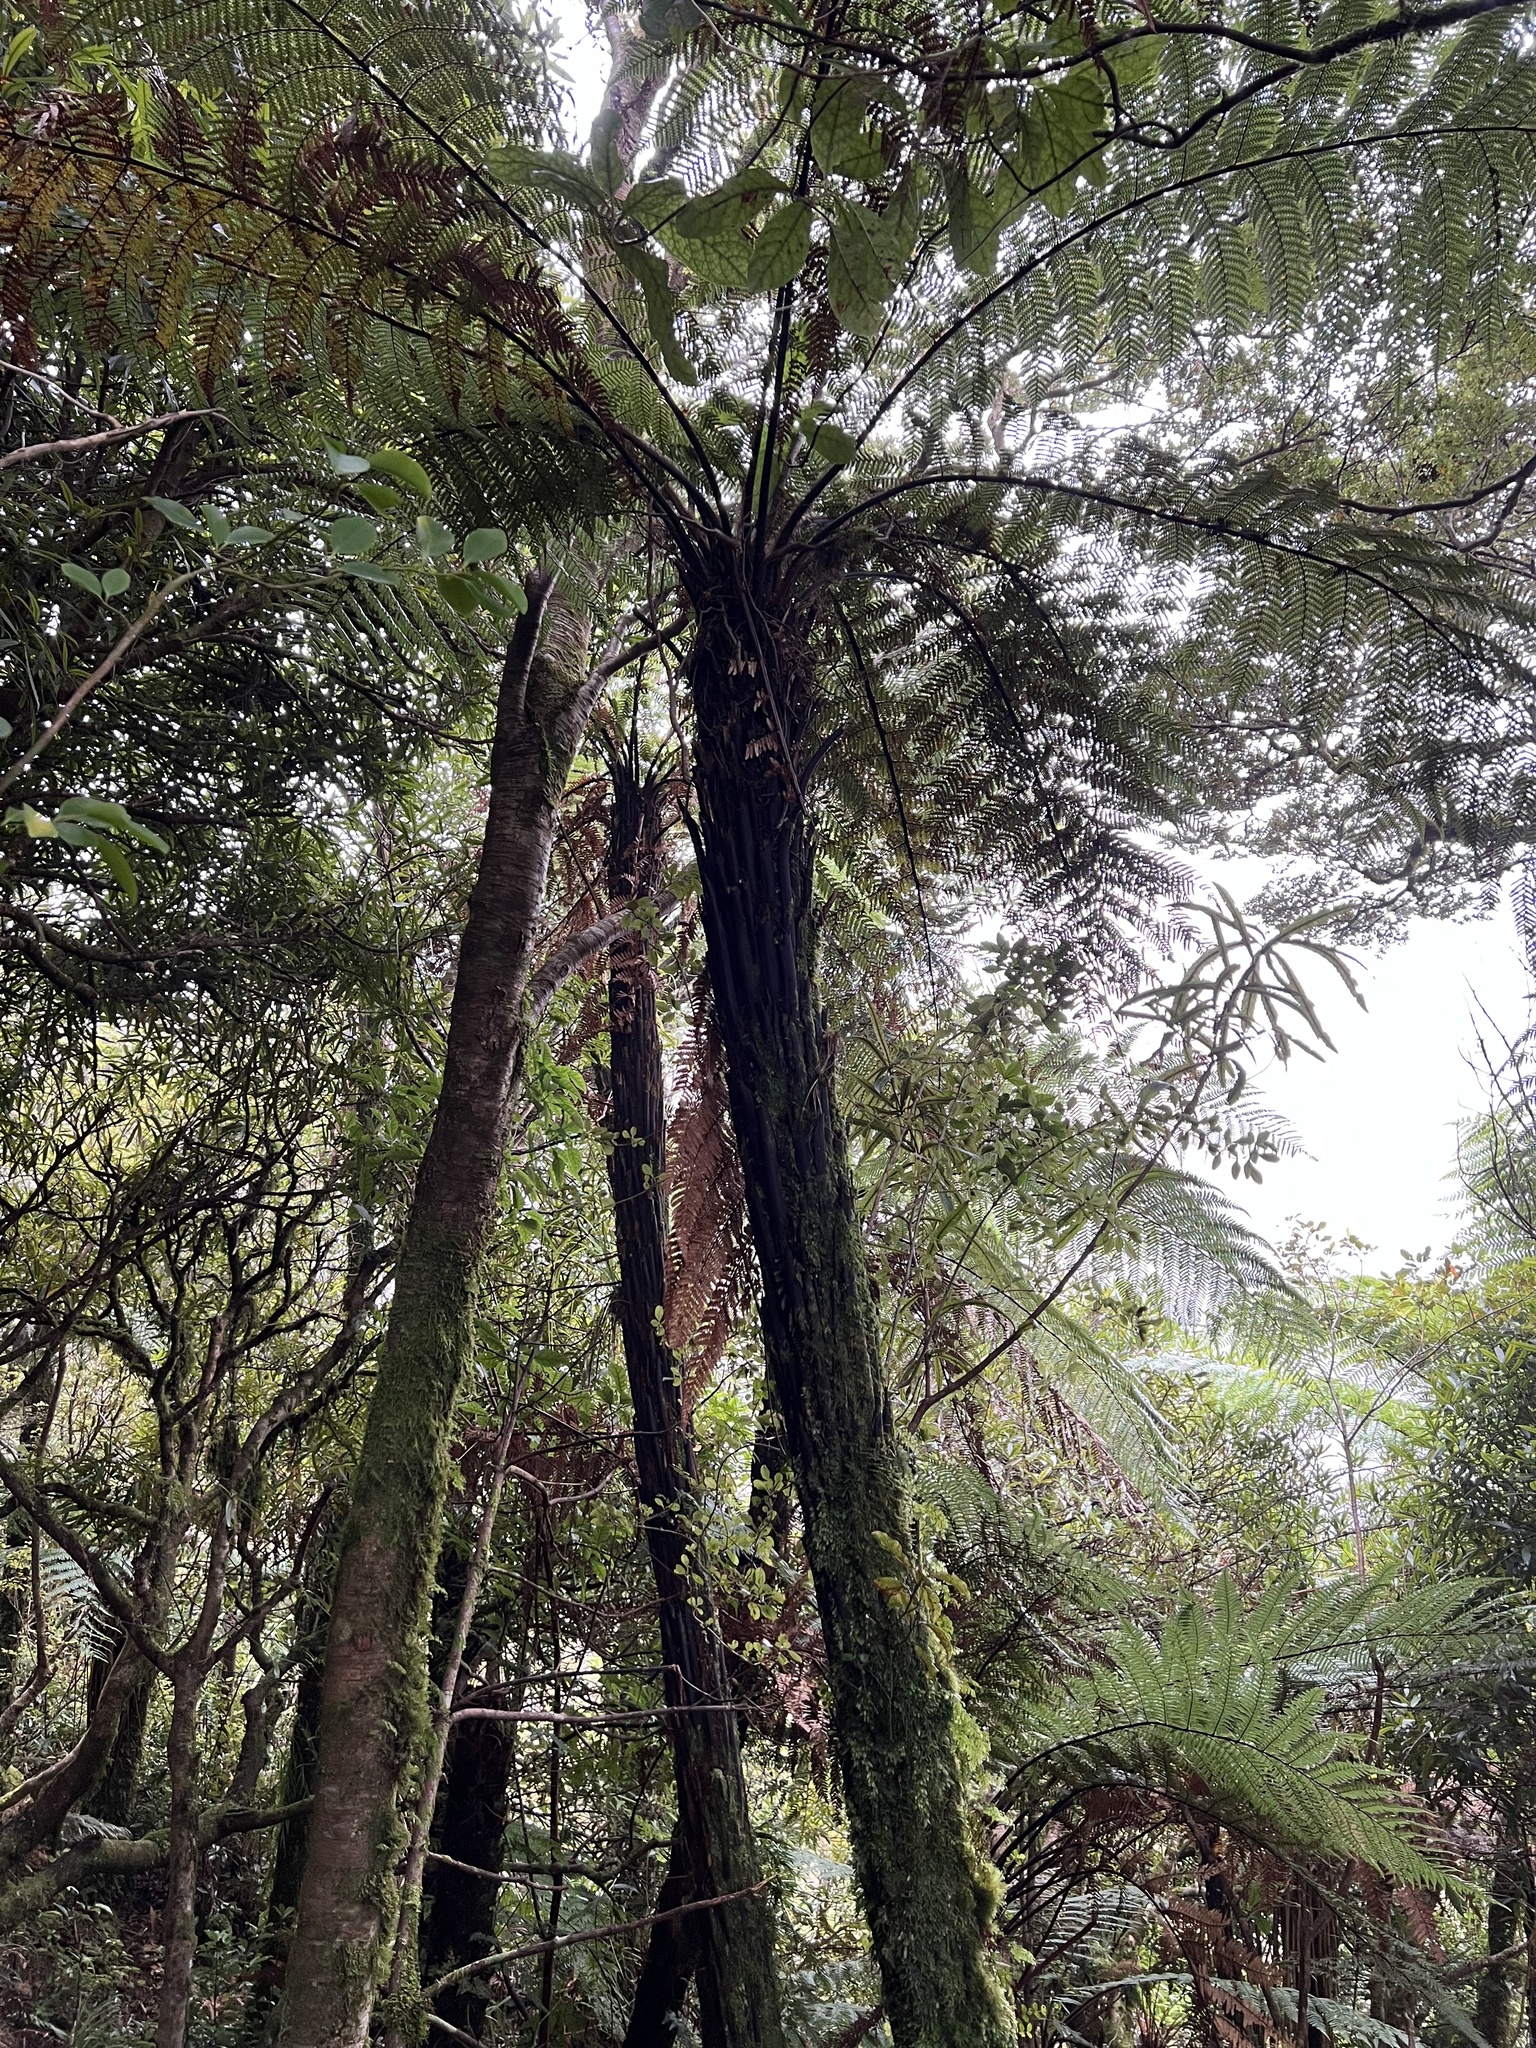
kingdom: Plantae
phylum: Tracheophyta
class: Polypodiopsida
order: Cyatheales
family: Dicksoniaceae
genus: Dicksonia
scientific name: Dicksonia squarrosa
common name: Hard treefern
